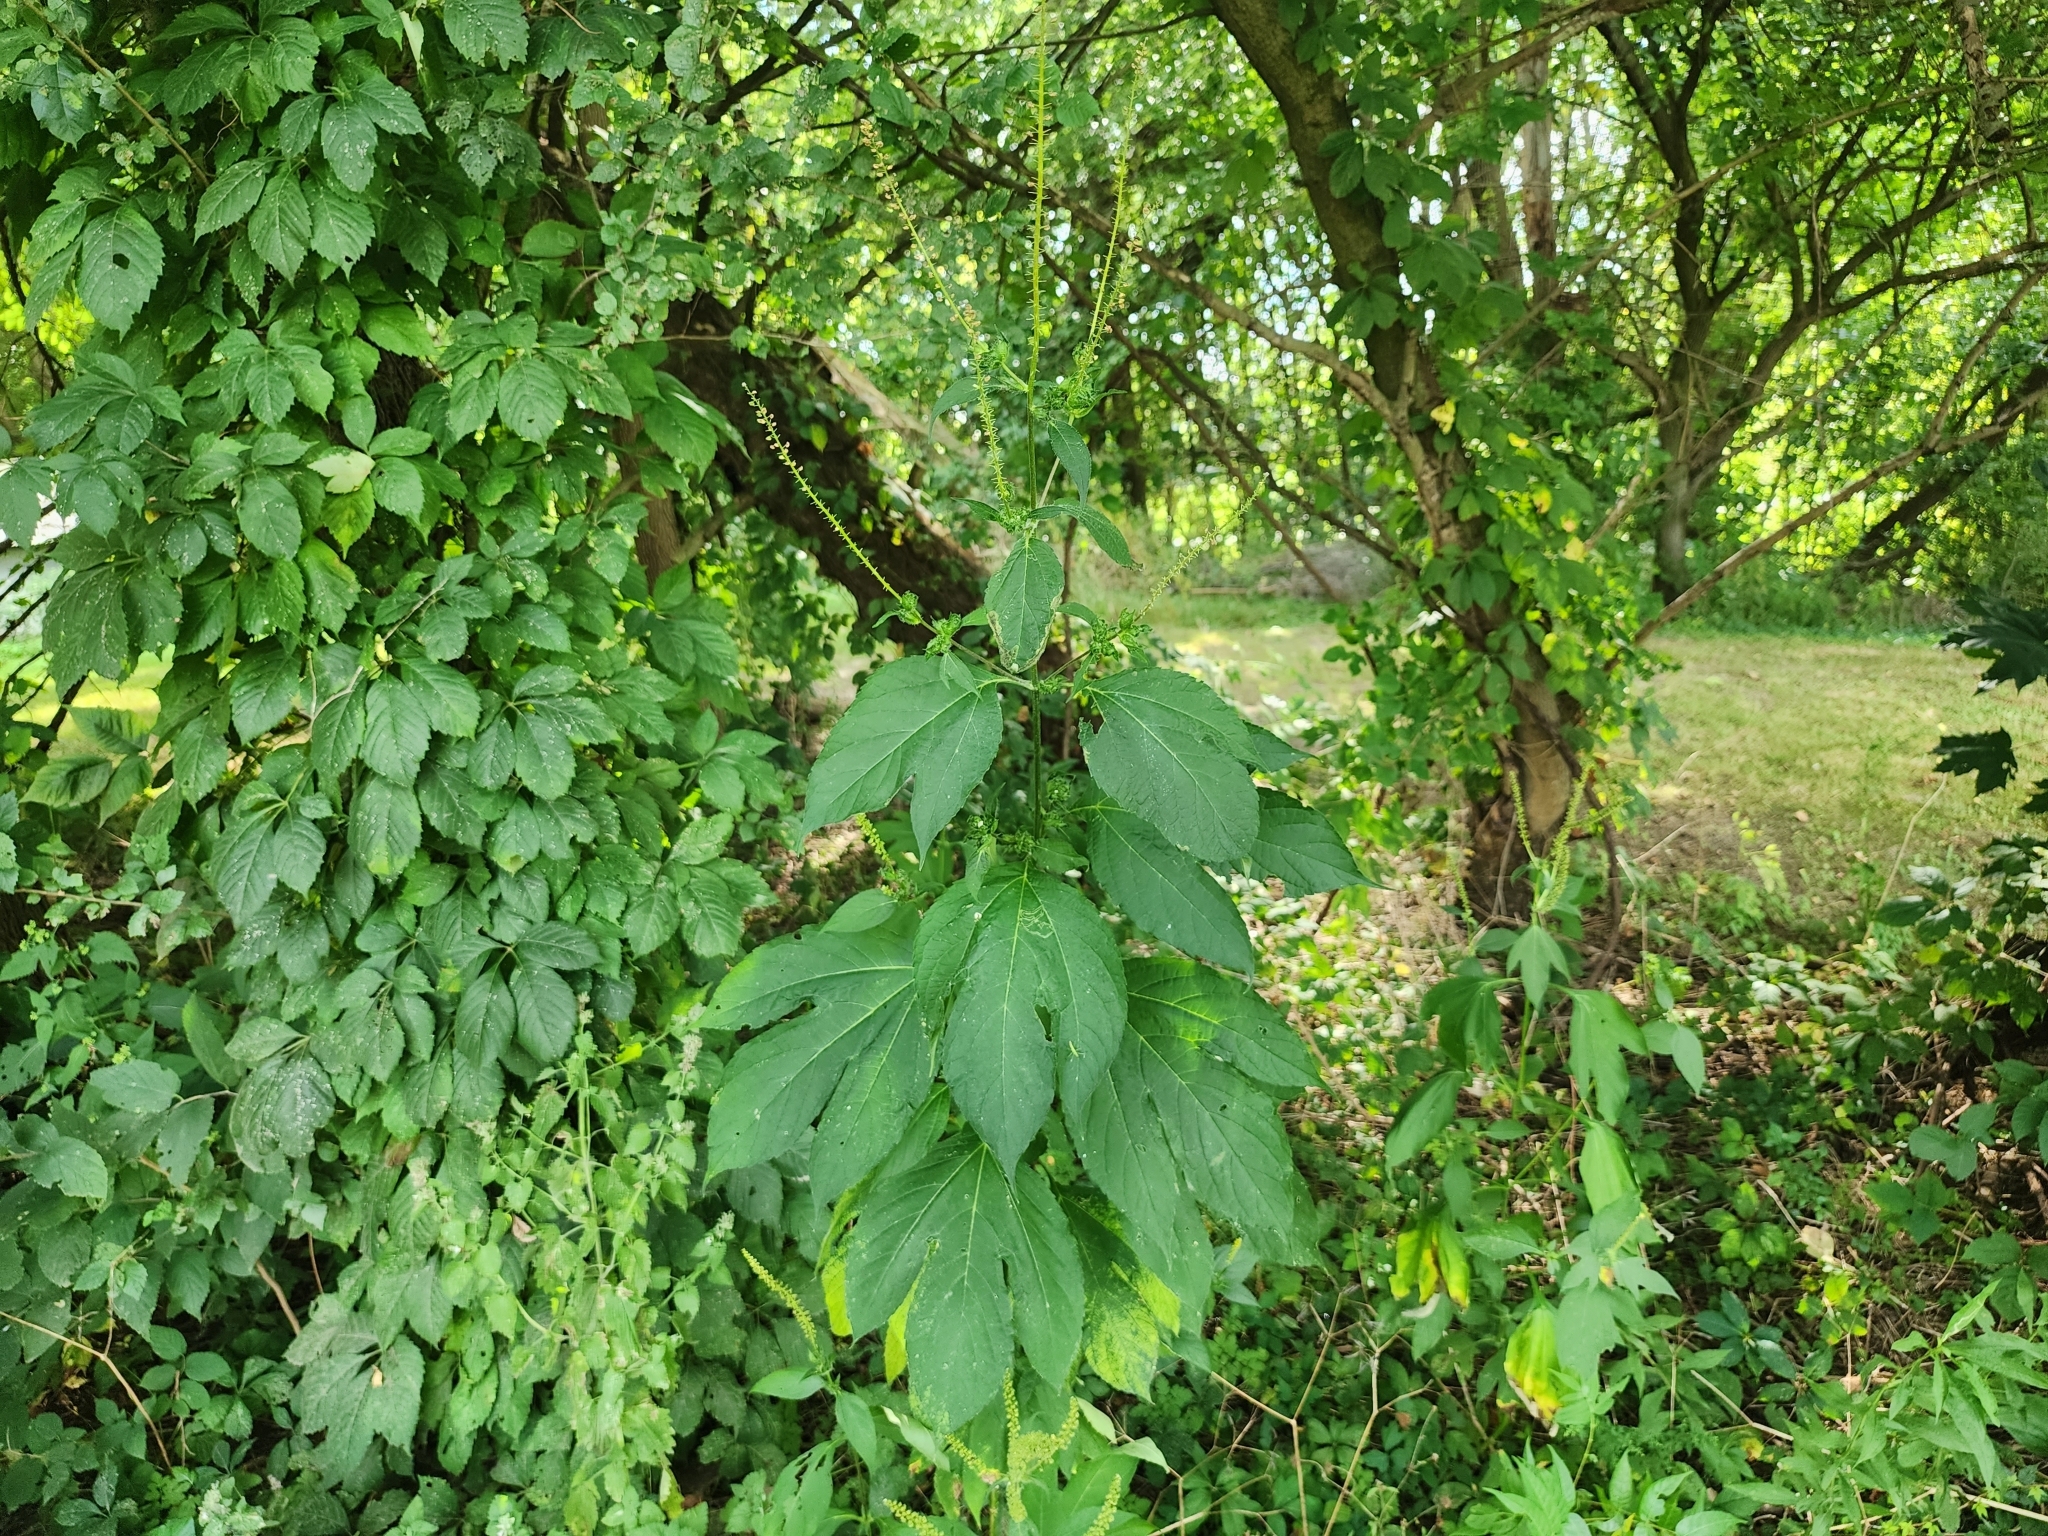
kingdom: Plantae
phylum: Tracheophyta
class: Magnoliopsida
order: Asterales
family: Asteraceae
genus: Ambrosia
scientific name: Ambrosia trifida
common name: Giant ragweed
